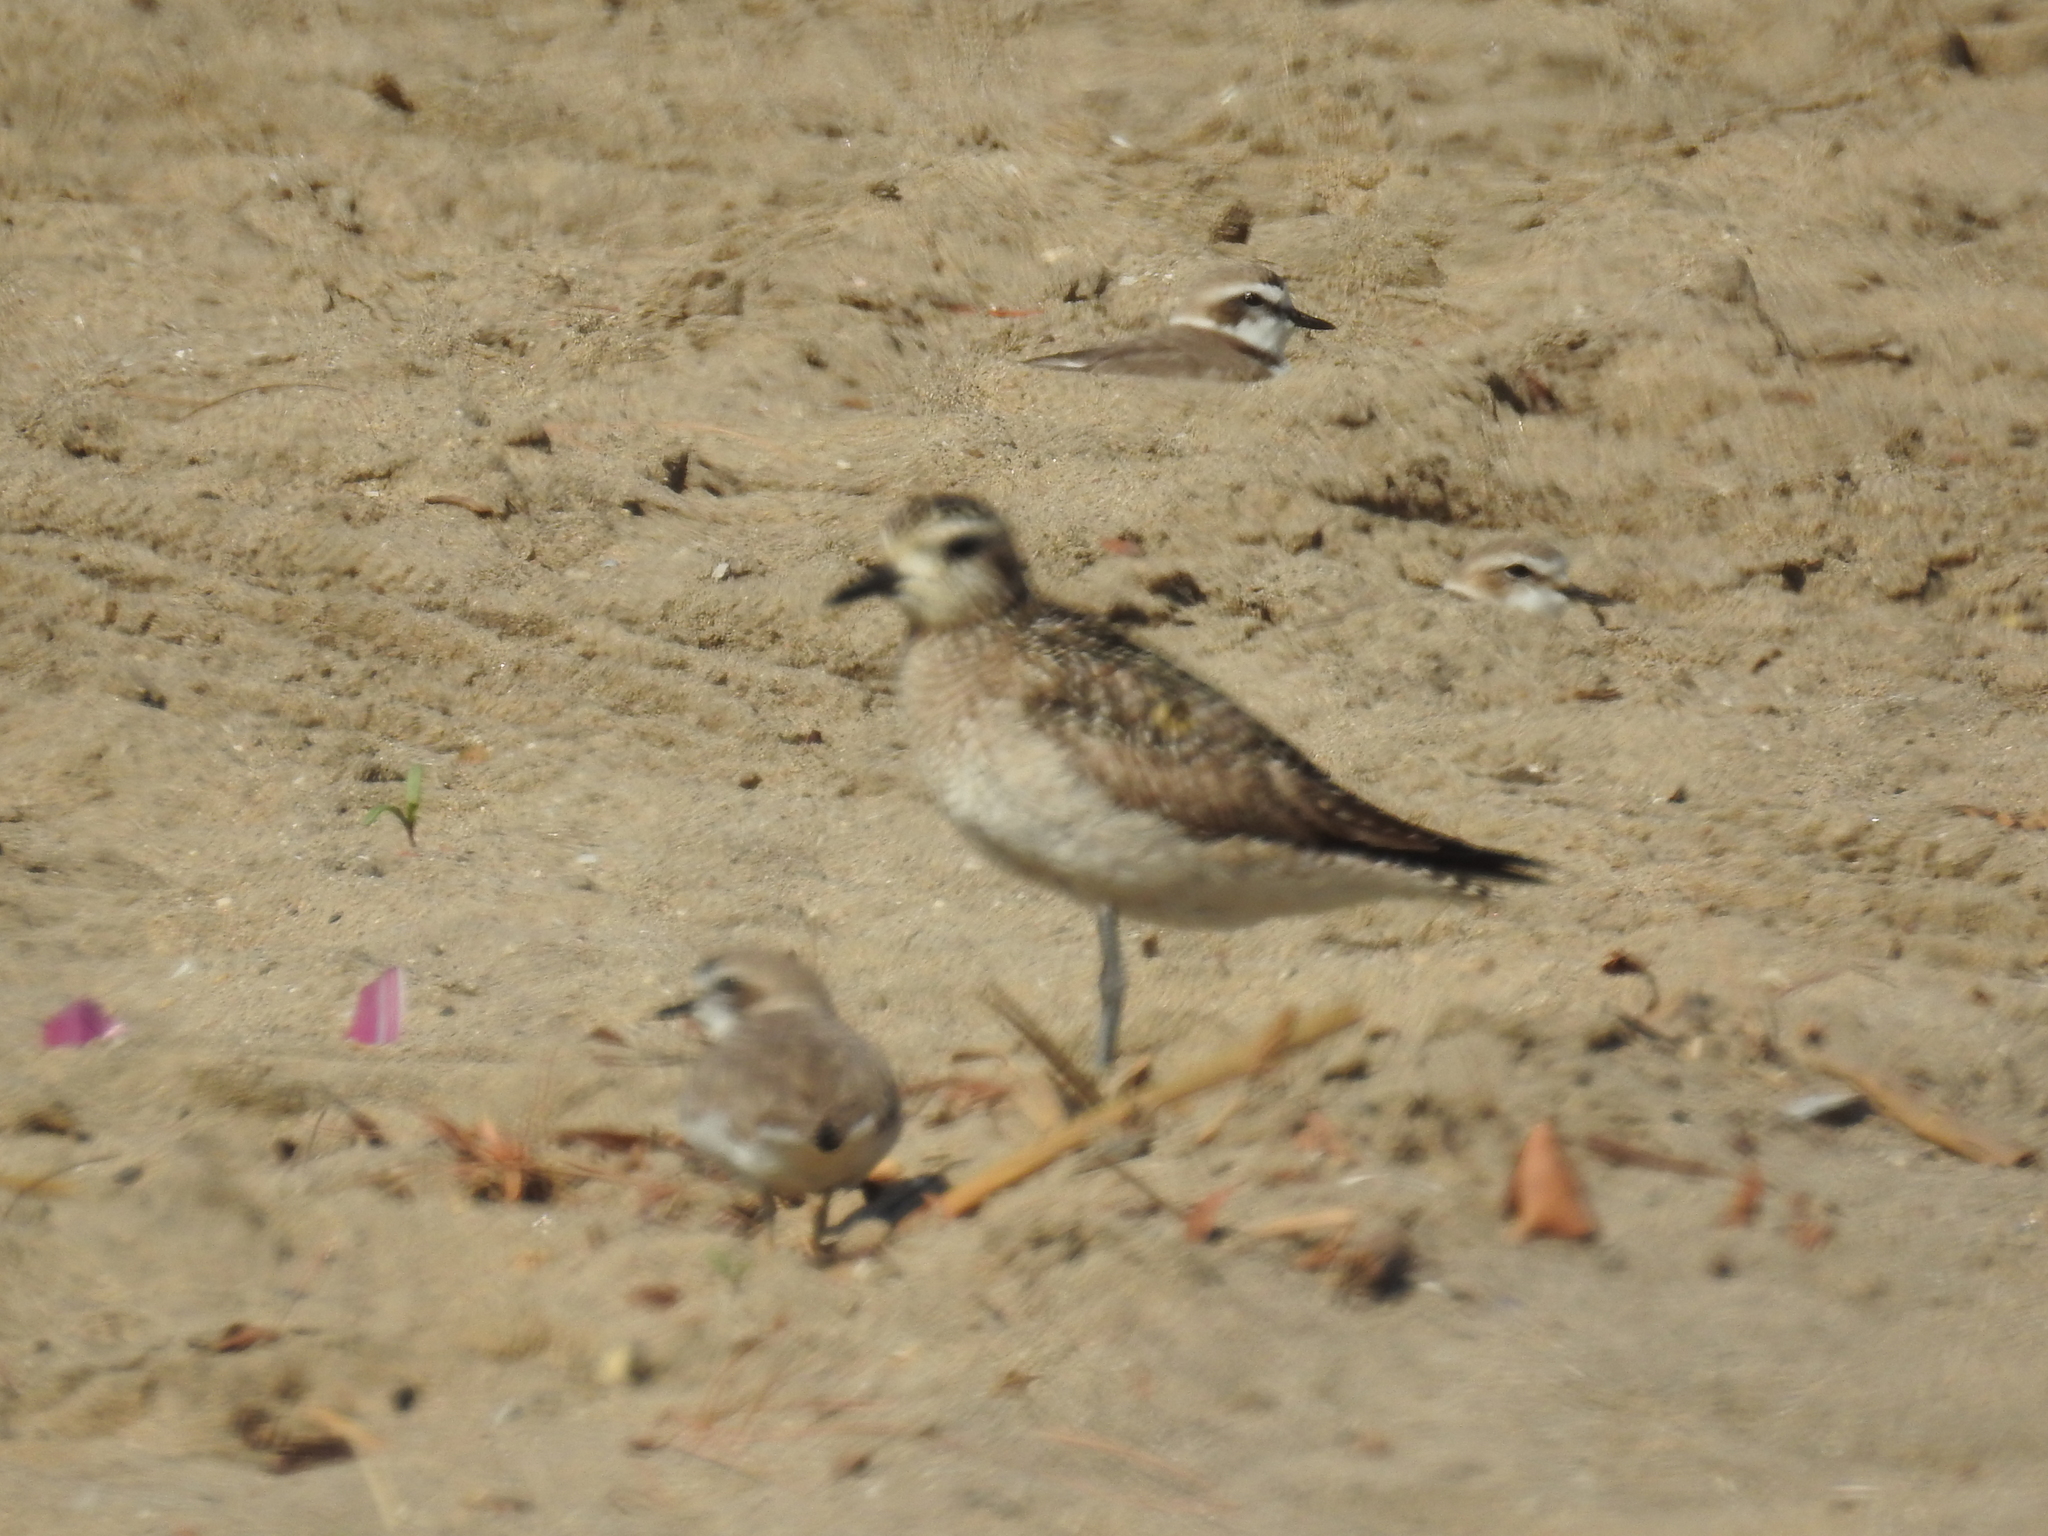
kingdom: Animalia
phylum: Chordata
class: Aves
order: Charadriiformes
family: Charadriidae
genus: Anarhynchus
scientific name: Anarhynchus
